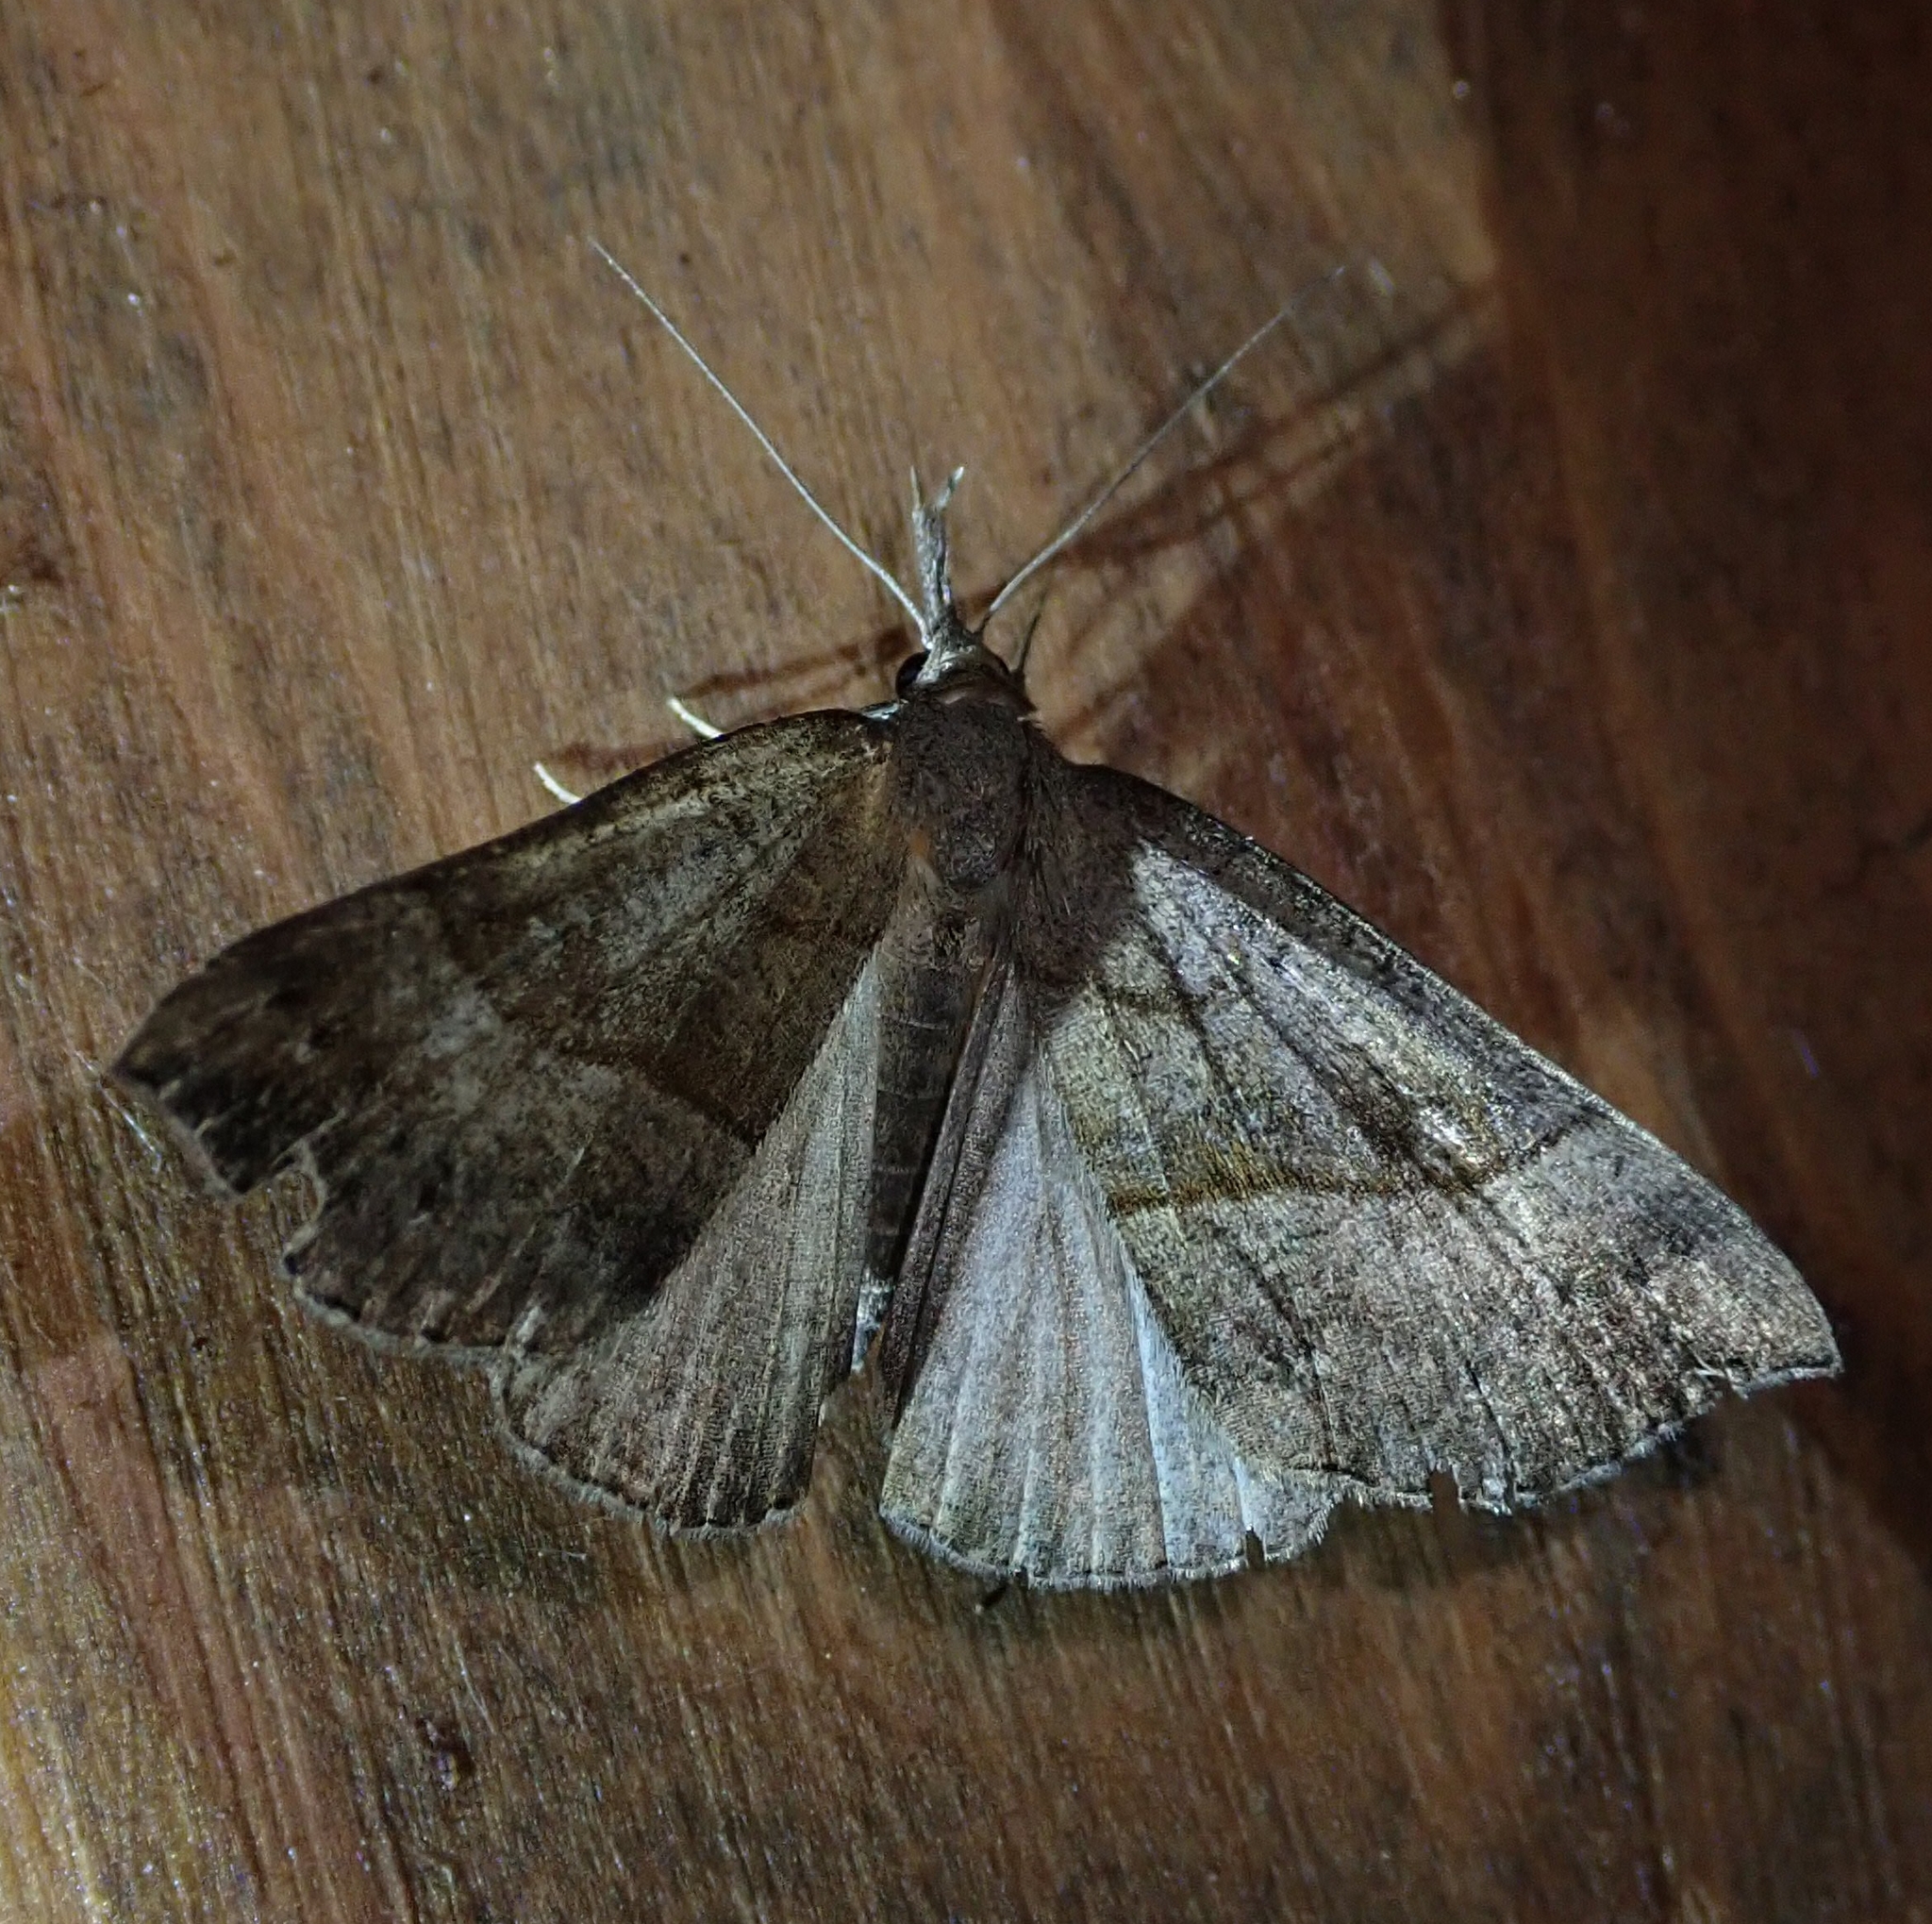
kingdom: Animalia
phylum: Arthropoda
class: Insecta
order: Lepidoptera
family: Erebidae
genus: Hypena
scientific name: Hypena proboscidalis
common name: Snout
